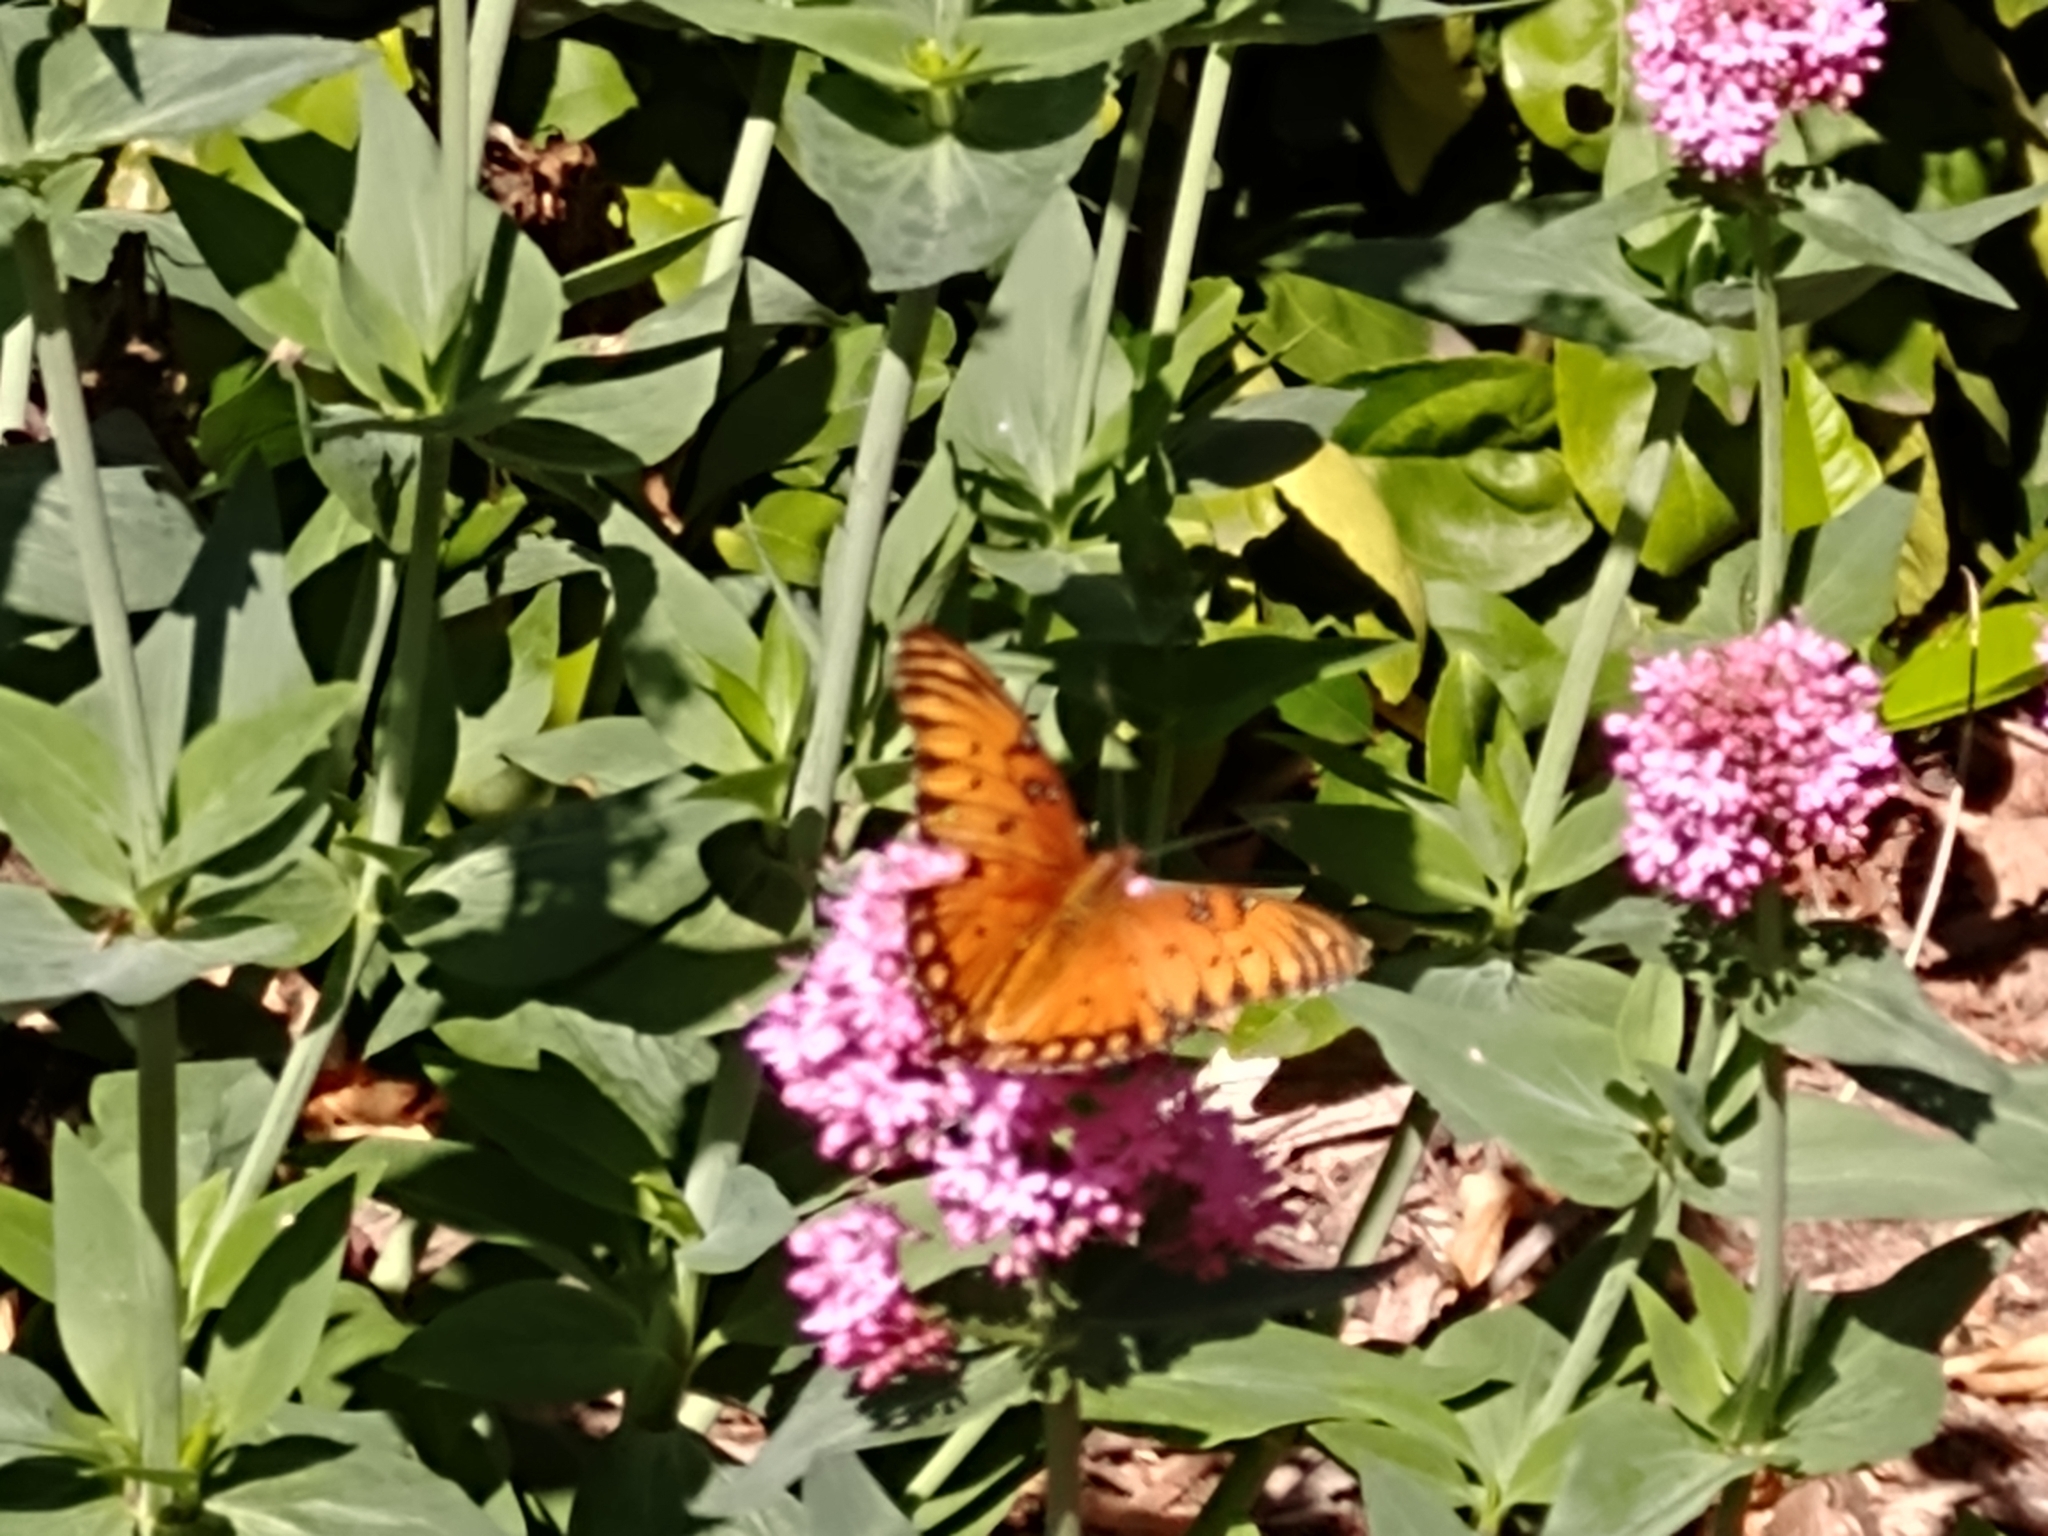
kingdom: Animalia
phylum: Arthropoda
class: Insecta
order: Lepidoptera
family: Nymphalidae
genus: Dione
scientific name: Dione vanillae
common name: Gulf fritillary
